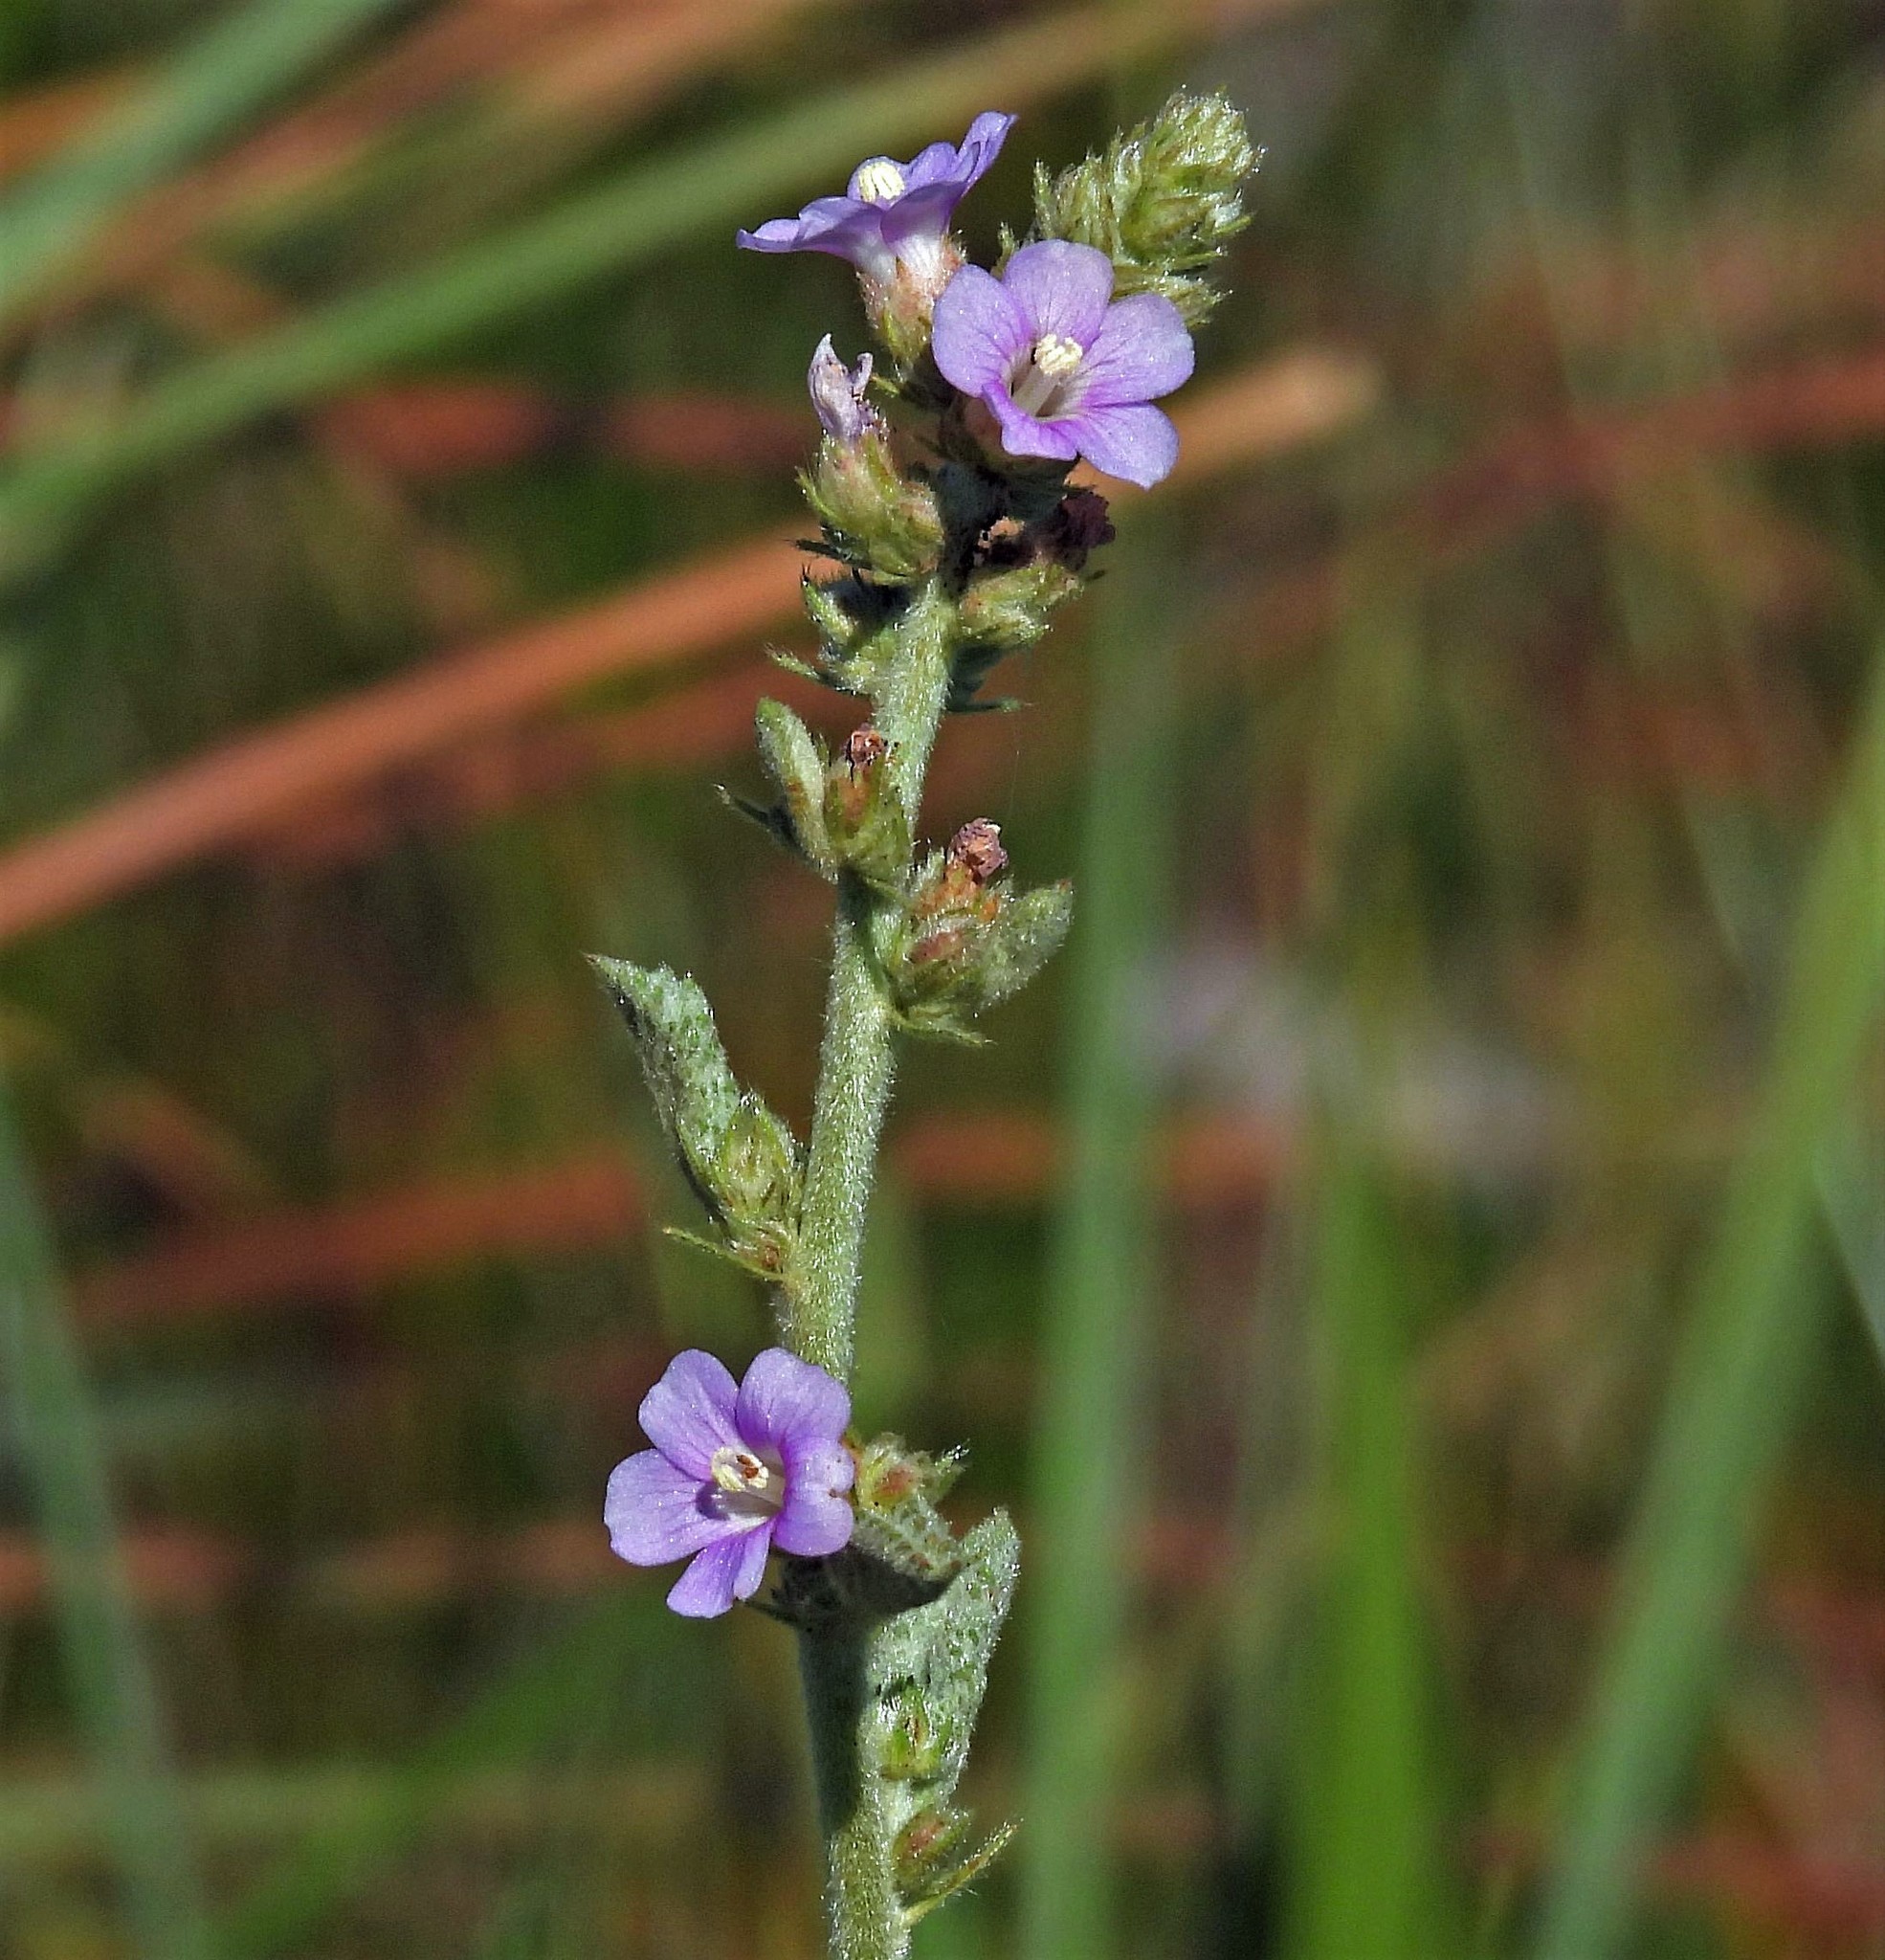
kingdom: Plantae
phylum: Tracheophyta
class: Magnoliopsida
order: Malvales
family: Malvaceae
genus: Melochia
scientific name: Melochia spicata
